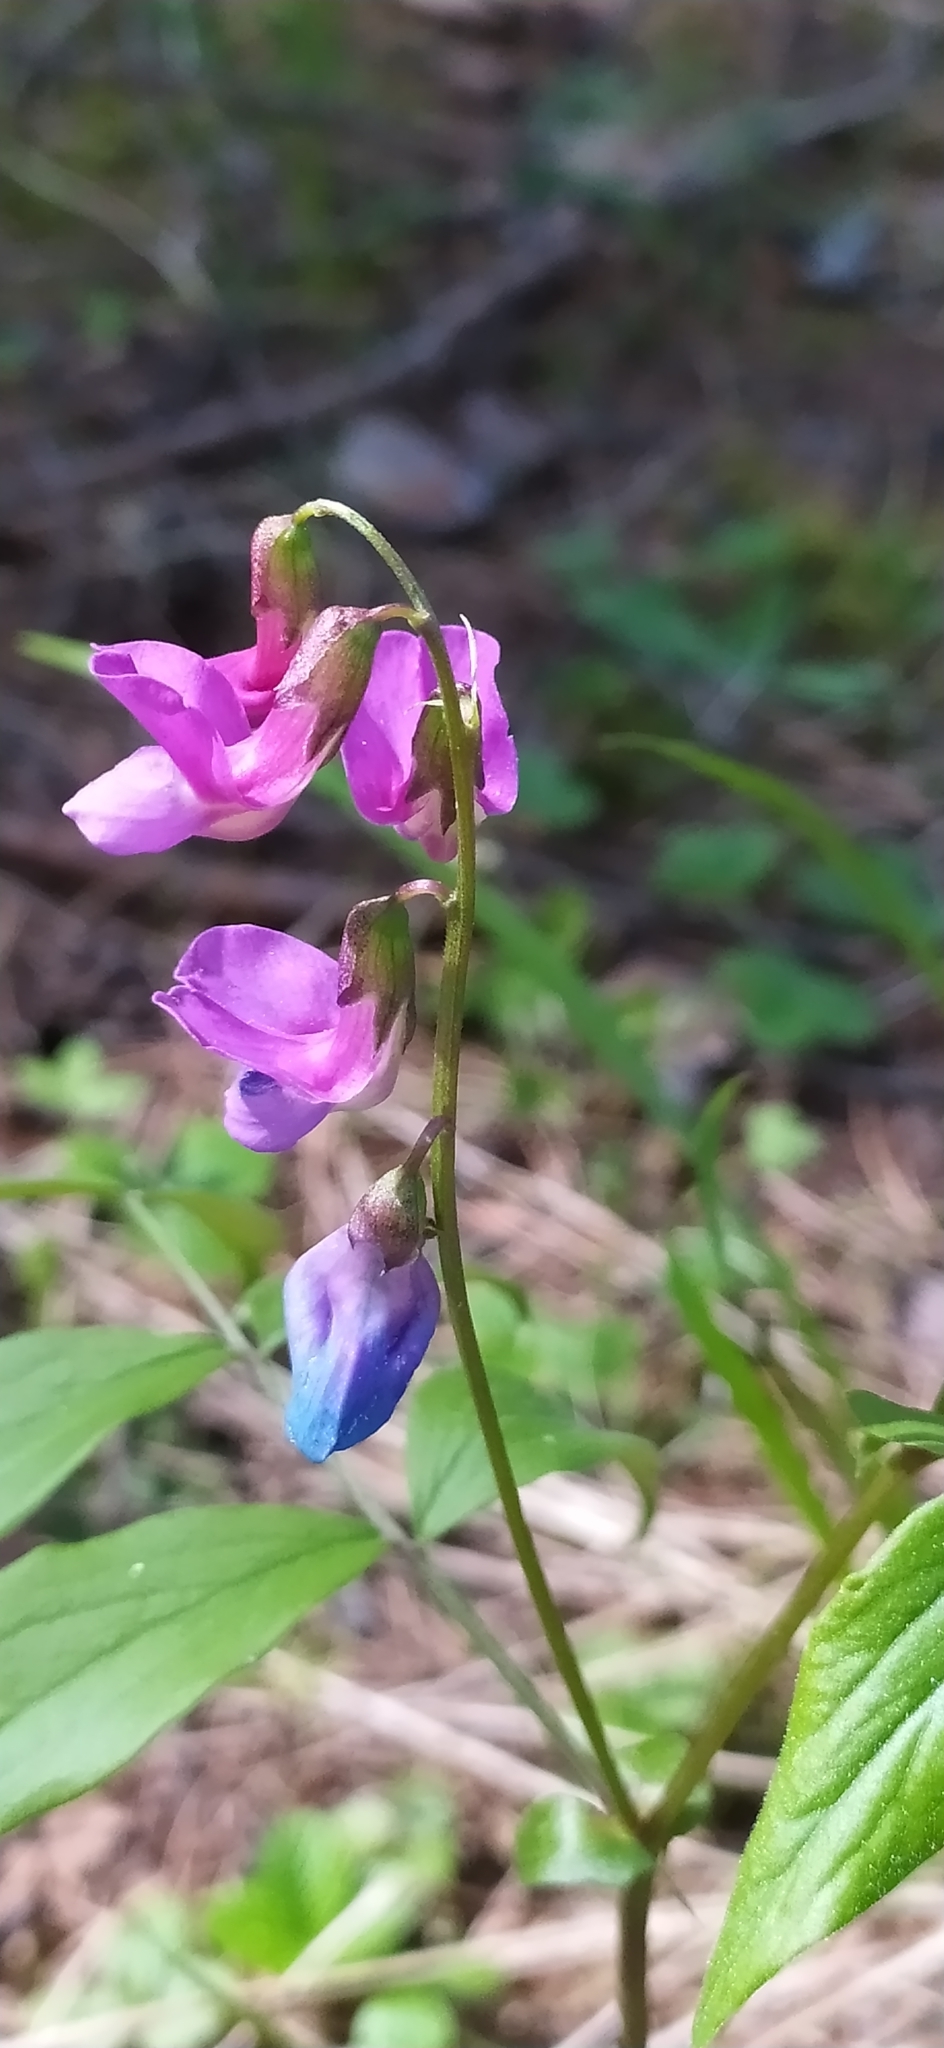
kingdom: Plantae
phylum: Tracheophyta
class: Magnoliopsida
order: Fabales
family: Fabaceae
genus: Lathyrus
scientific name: Lathyrus vernus
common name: Spring pea
